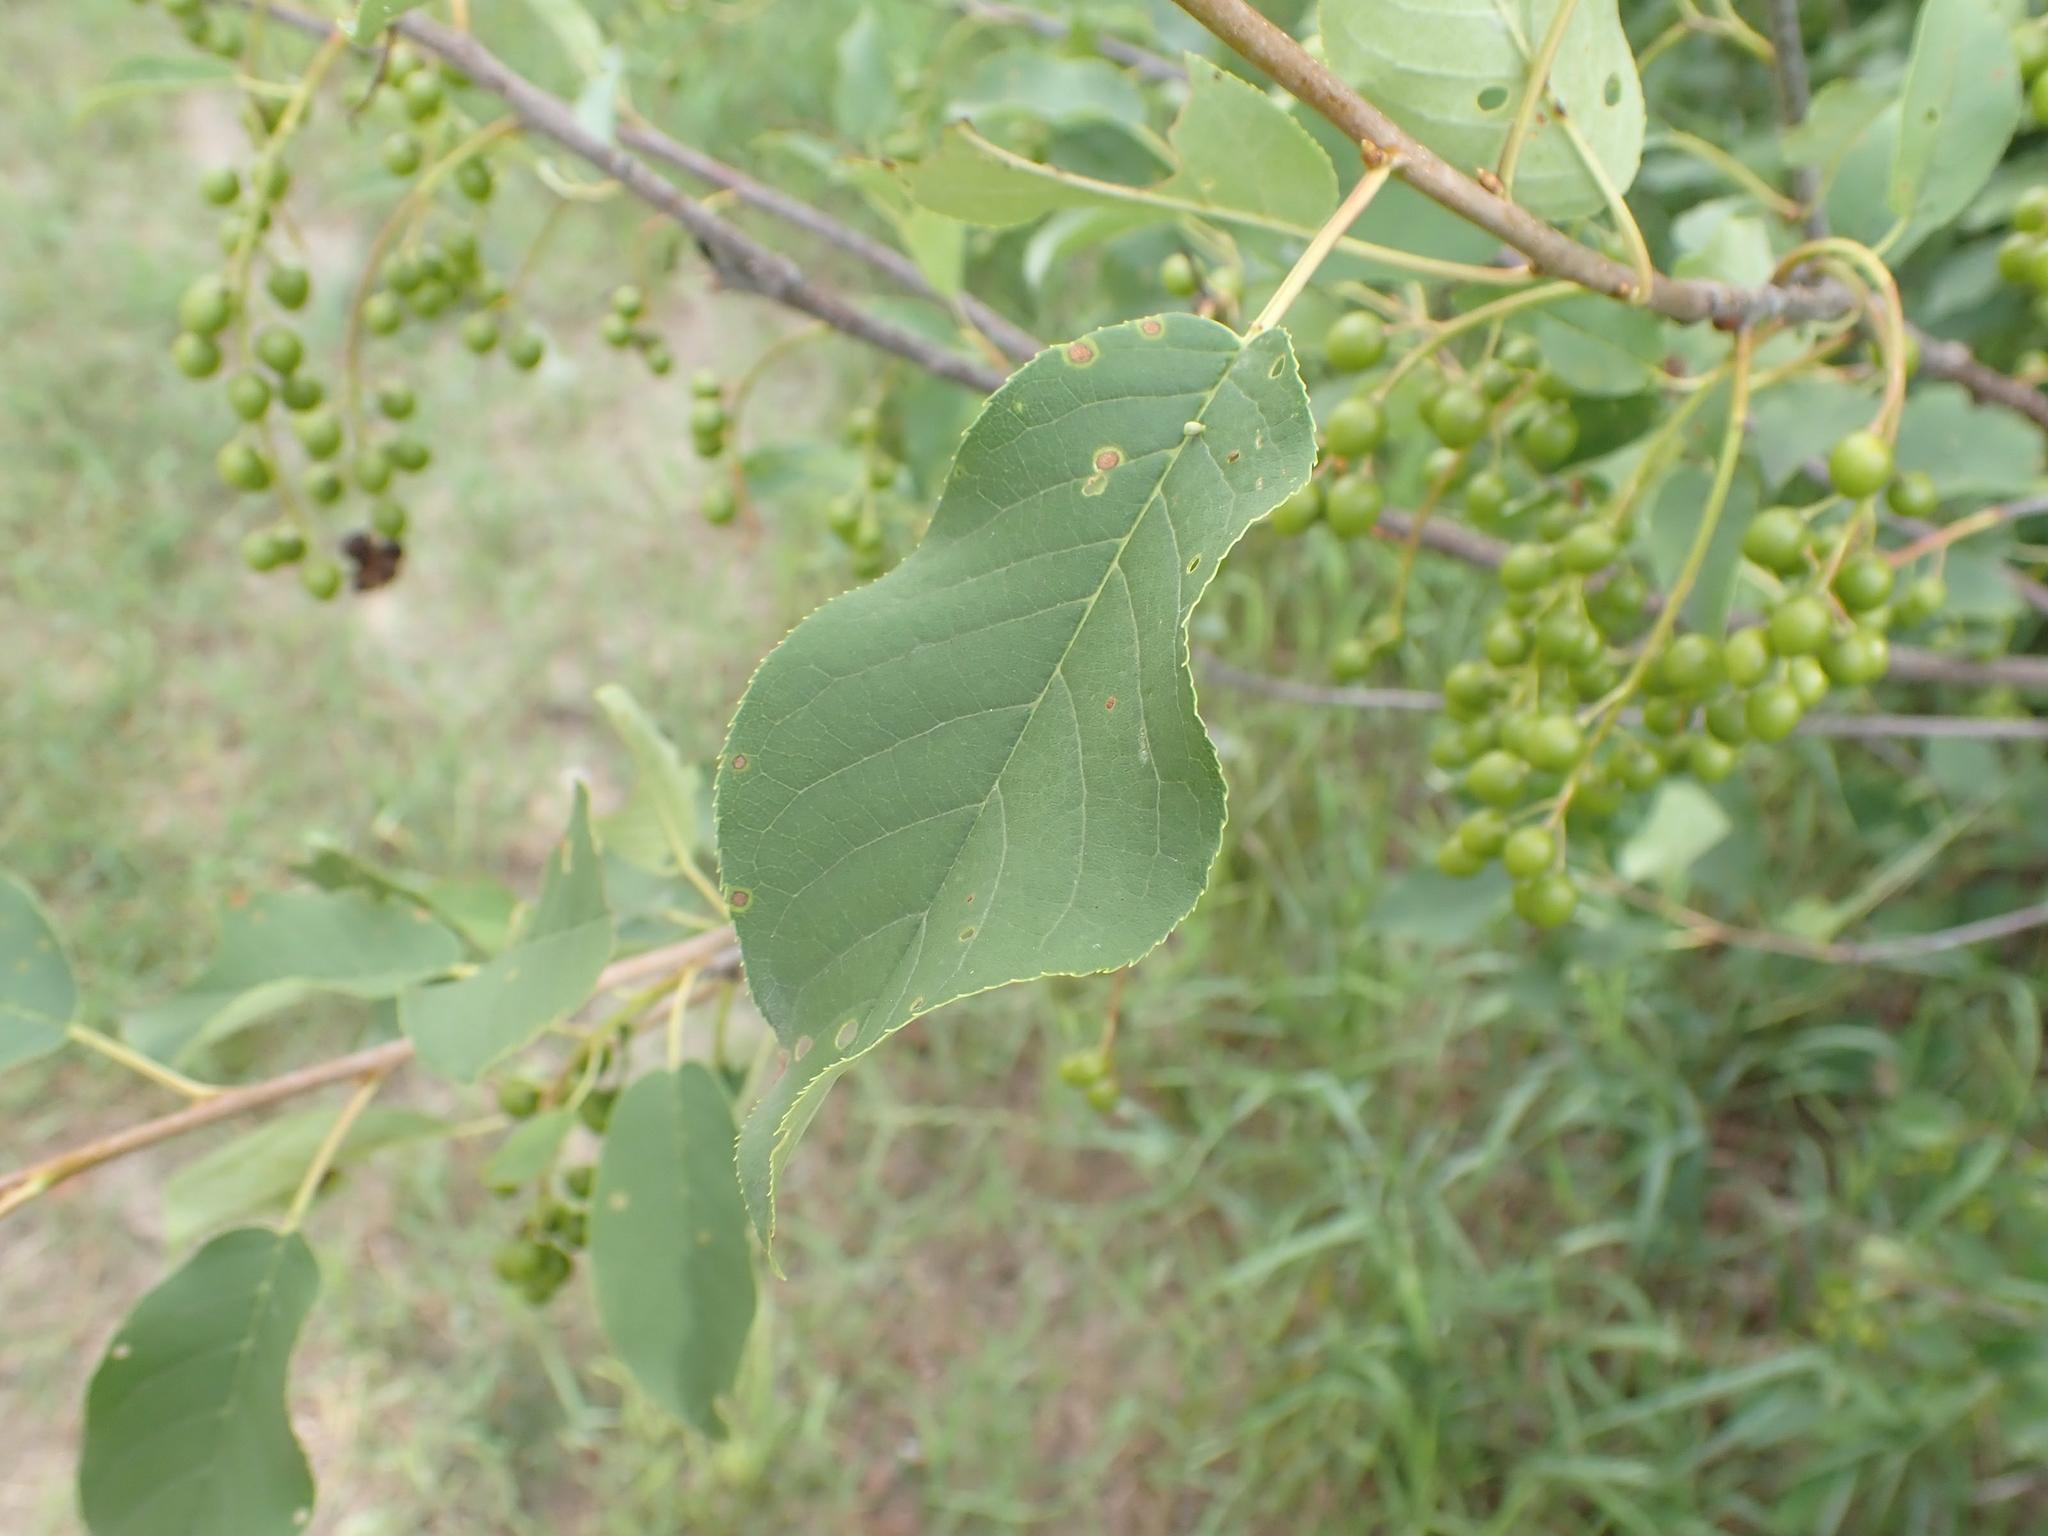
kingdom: Plantae
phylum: Tracheophyta
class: Magnoliopsida
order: Rosales
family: Rosaceae
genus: Prunus
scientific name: Prunus virginiana
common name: Chokecherry
